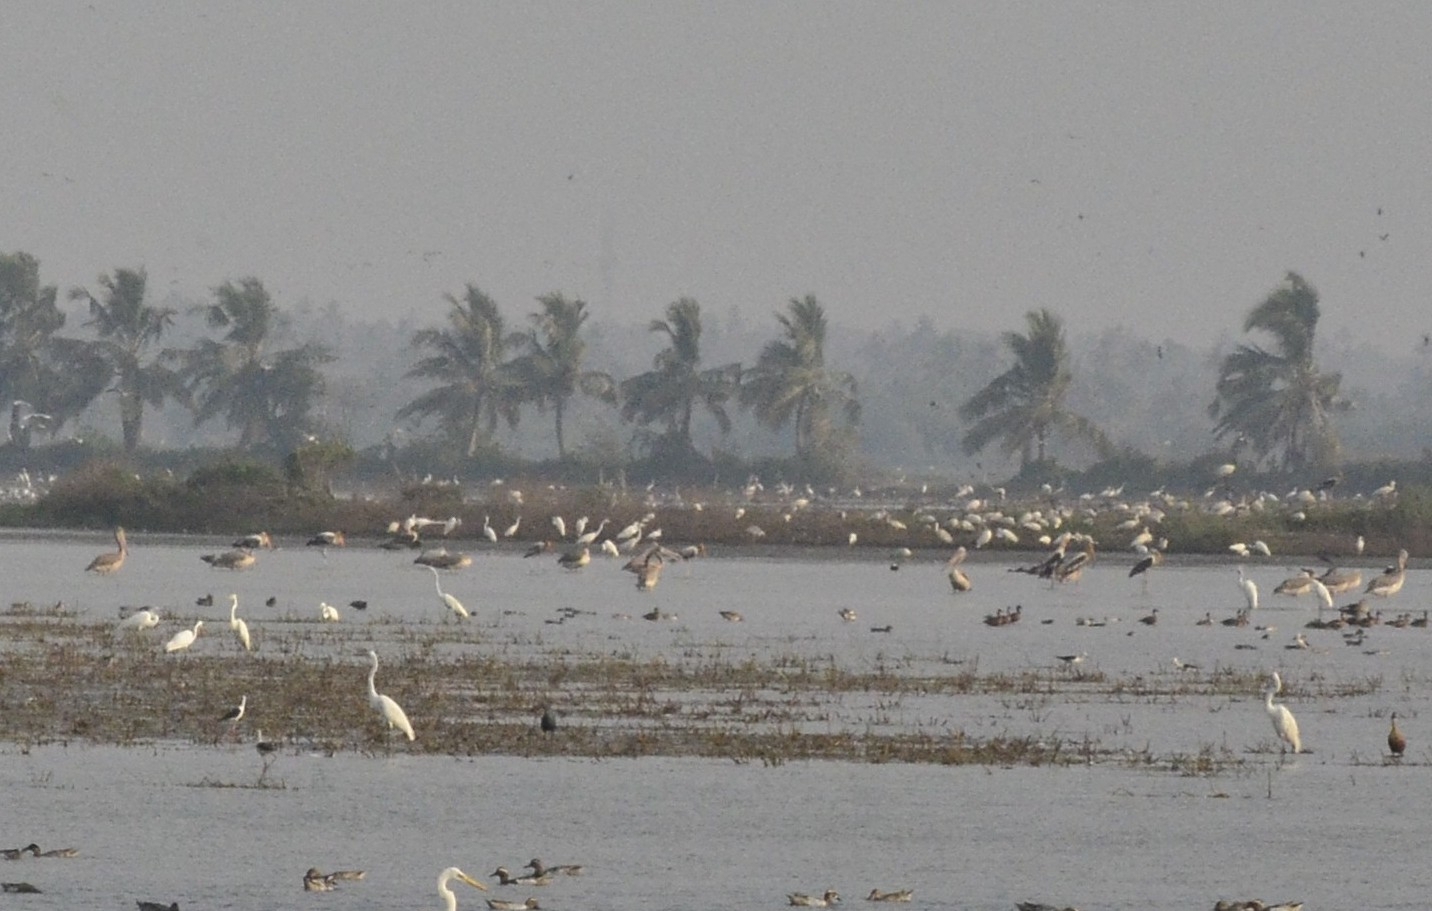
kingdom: Animalia
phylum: Chordata
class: Aves
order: Pelecaniformes
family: Pelecanidae
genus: Pelecanus
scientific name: Pelecanus philippensis
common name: Spot-billed pelican
